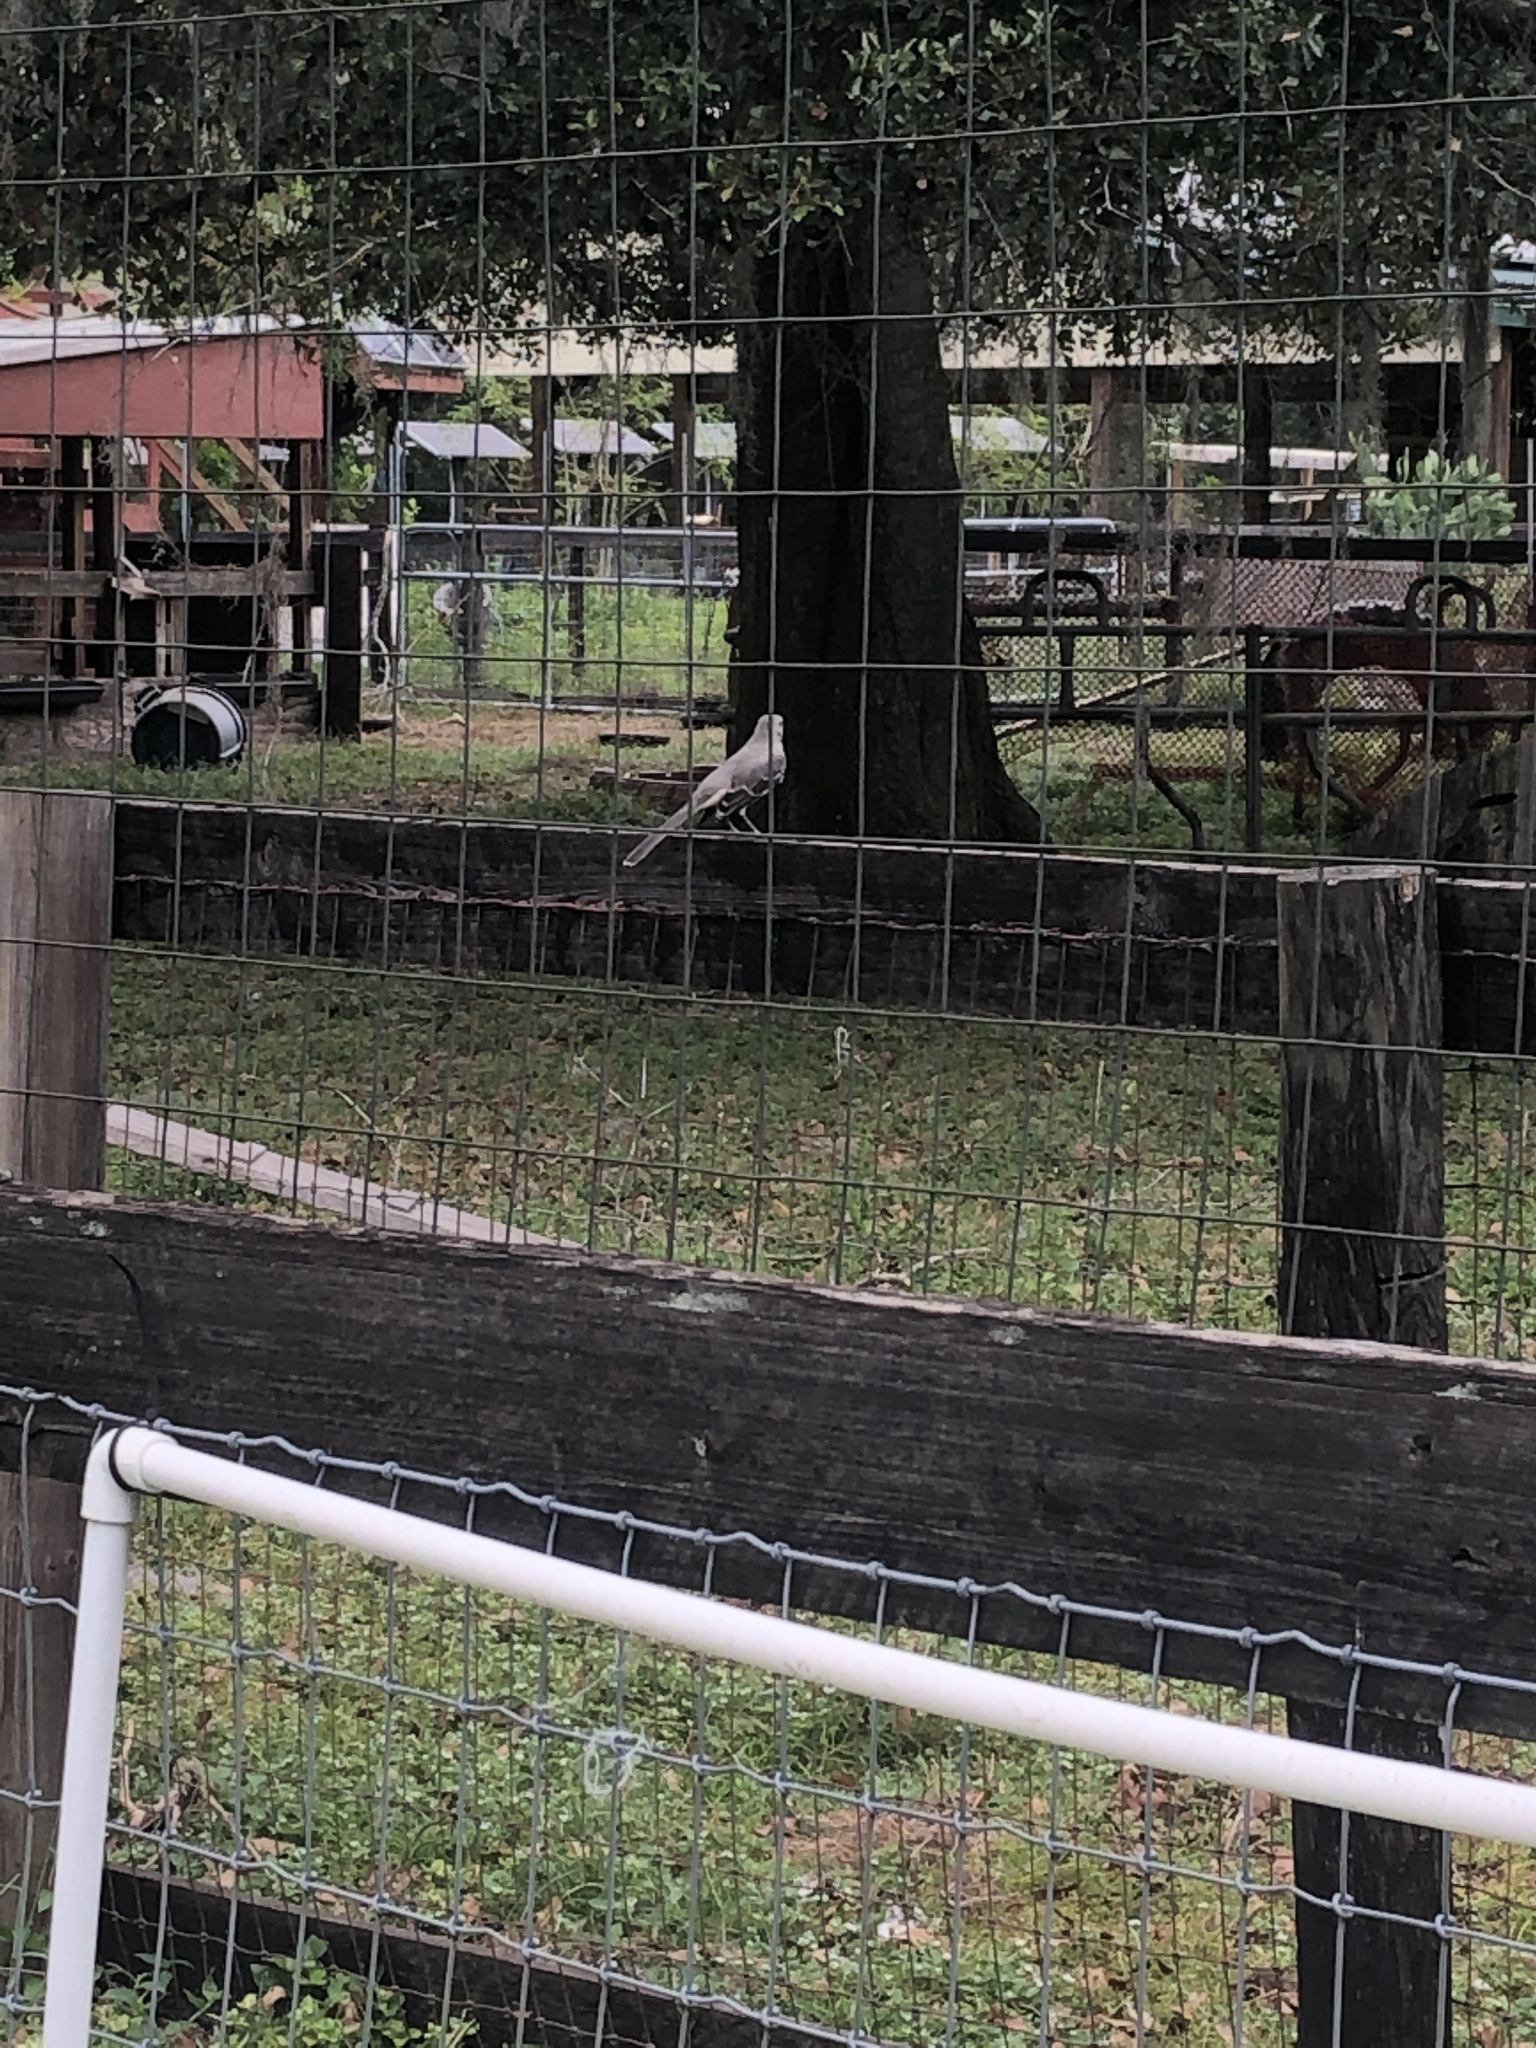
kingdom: Animalia
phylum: Chordata
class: Aves
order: Passeriformes
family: Mimidae
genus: Mimus
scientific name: Mimus polyglottos
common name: Northern mockingbird
